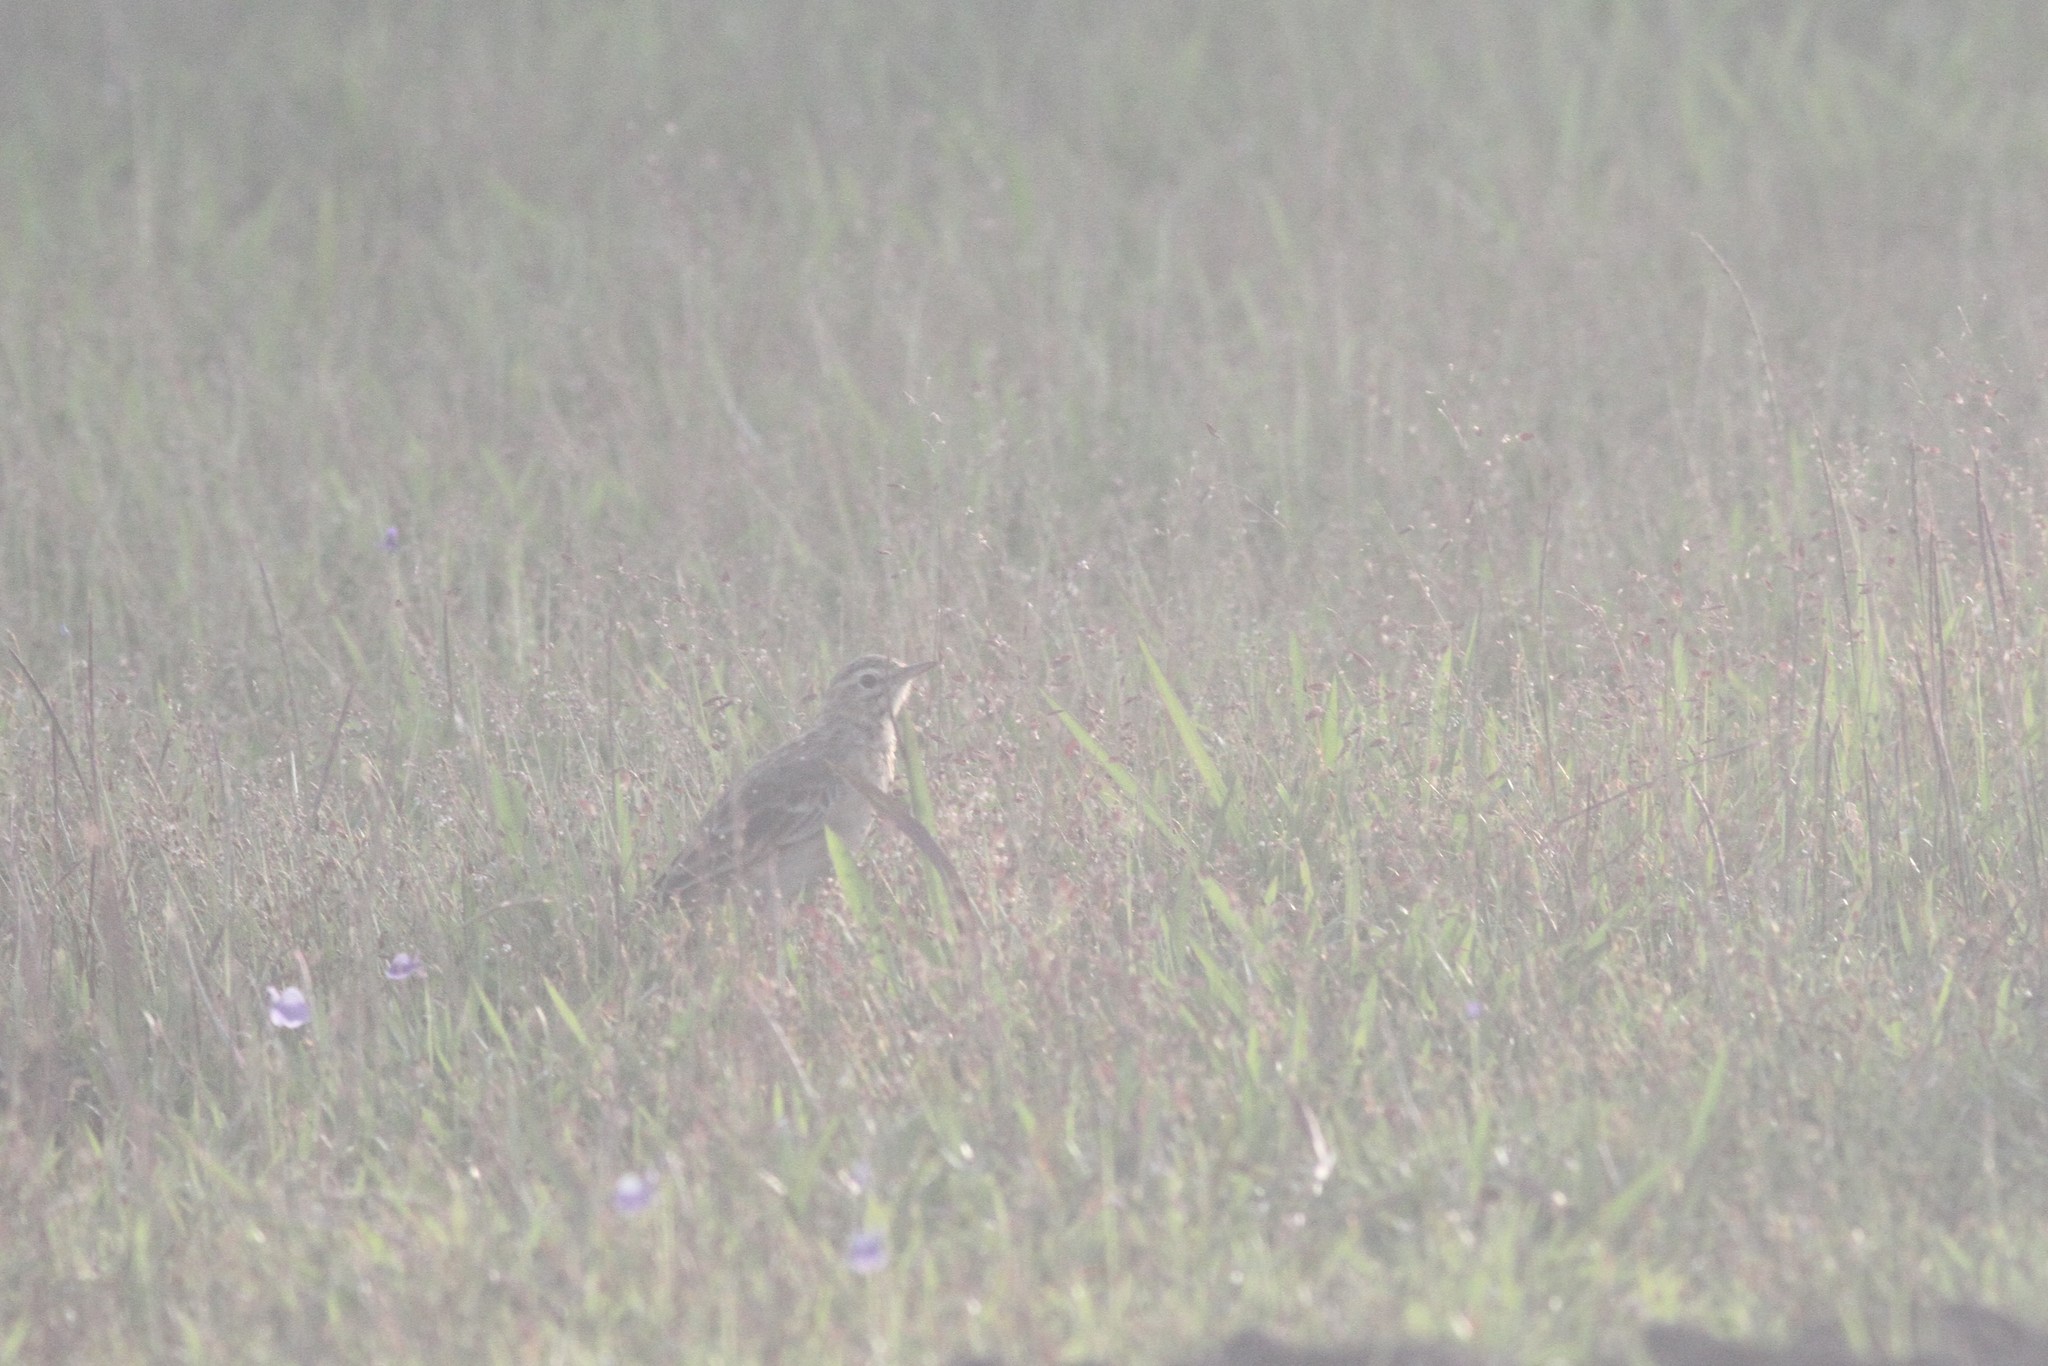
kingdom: Animalia
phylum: Chordata
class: Aves
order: Passeriformes
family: Motacillidae
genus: Anthus
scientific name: Anthus rufulus
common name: Paddyfield pipit
